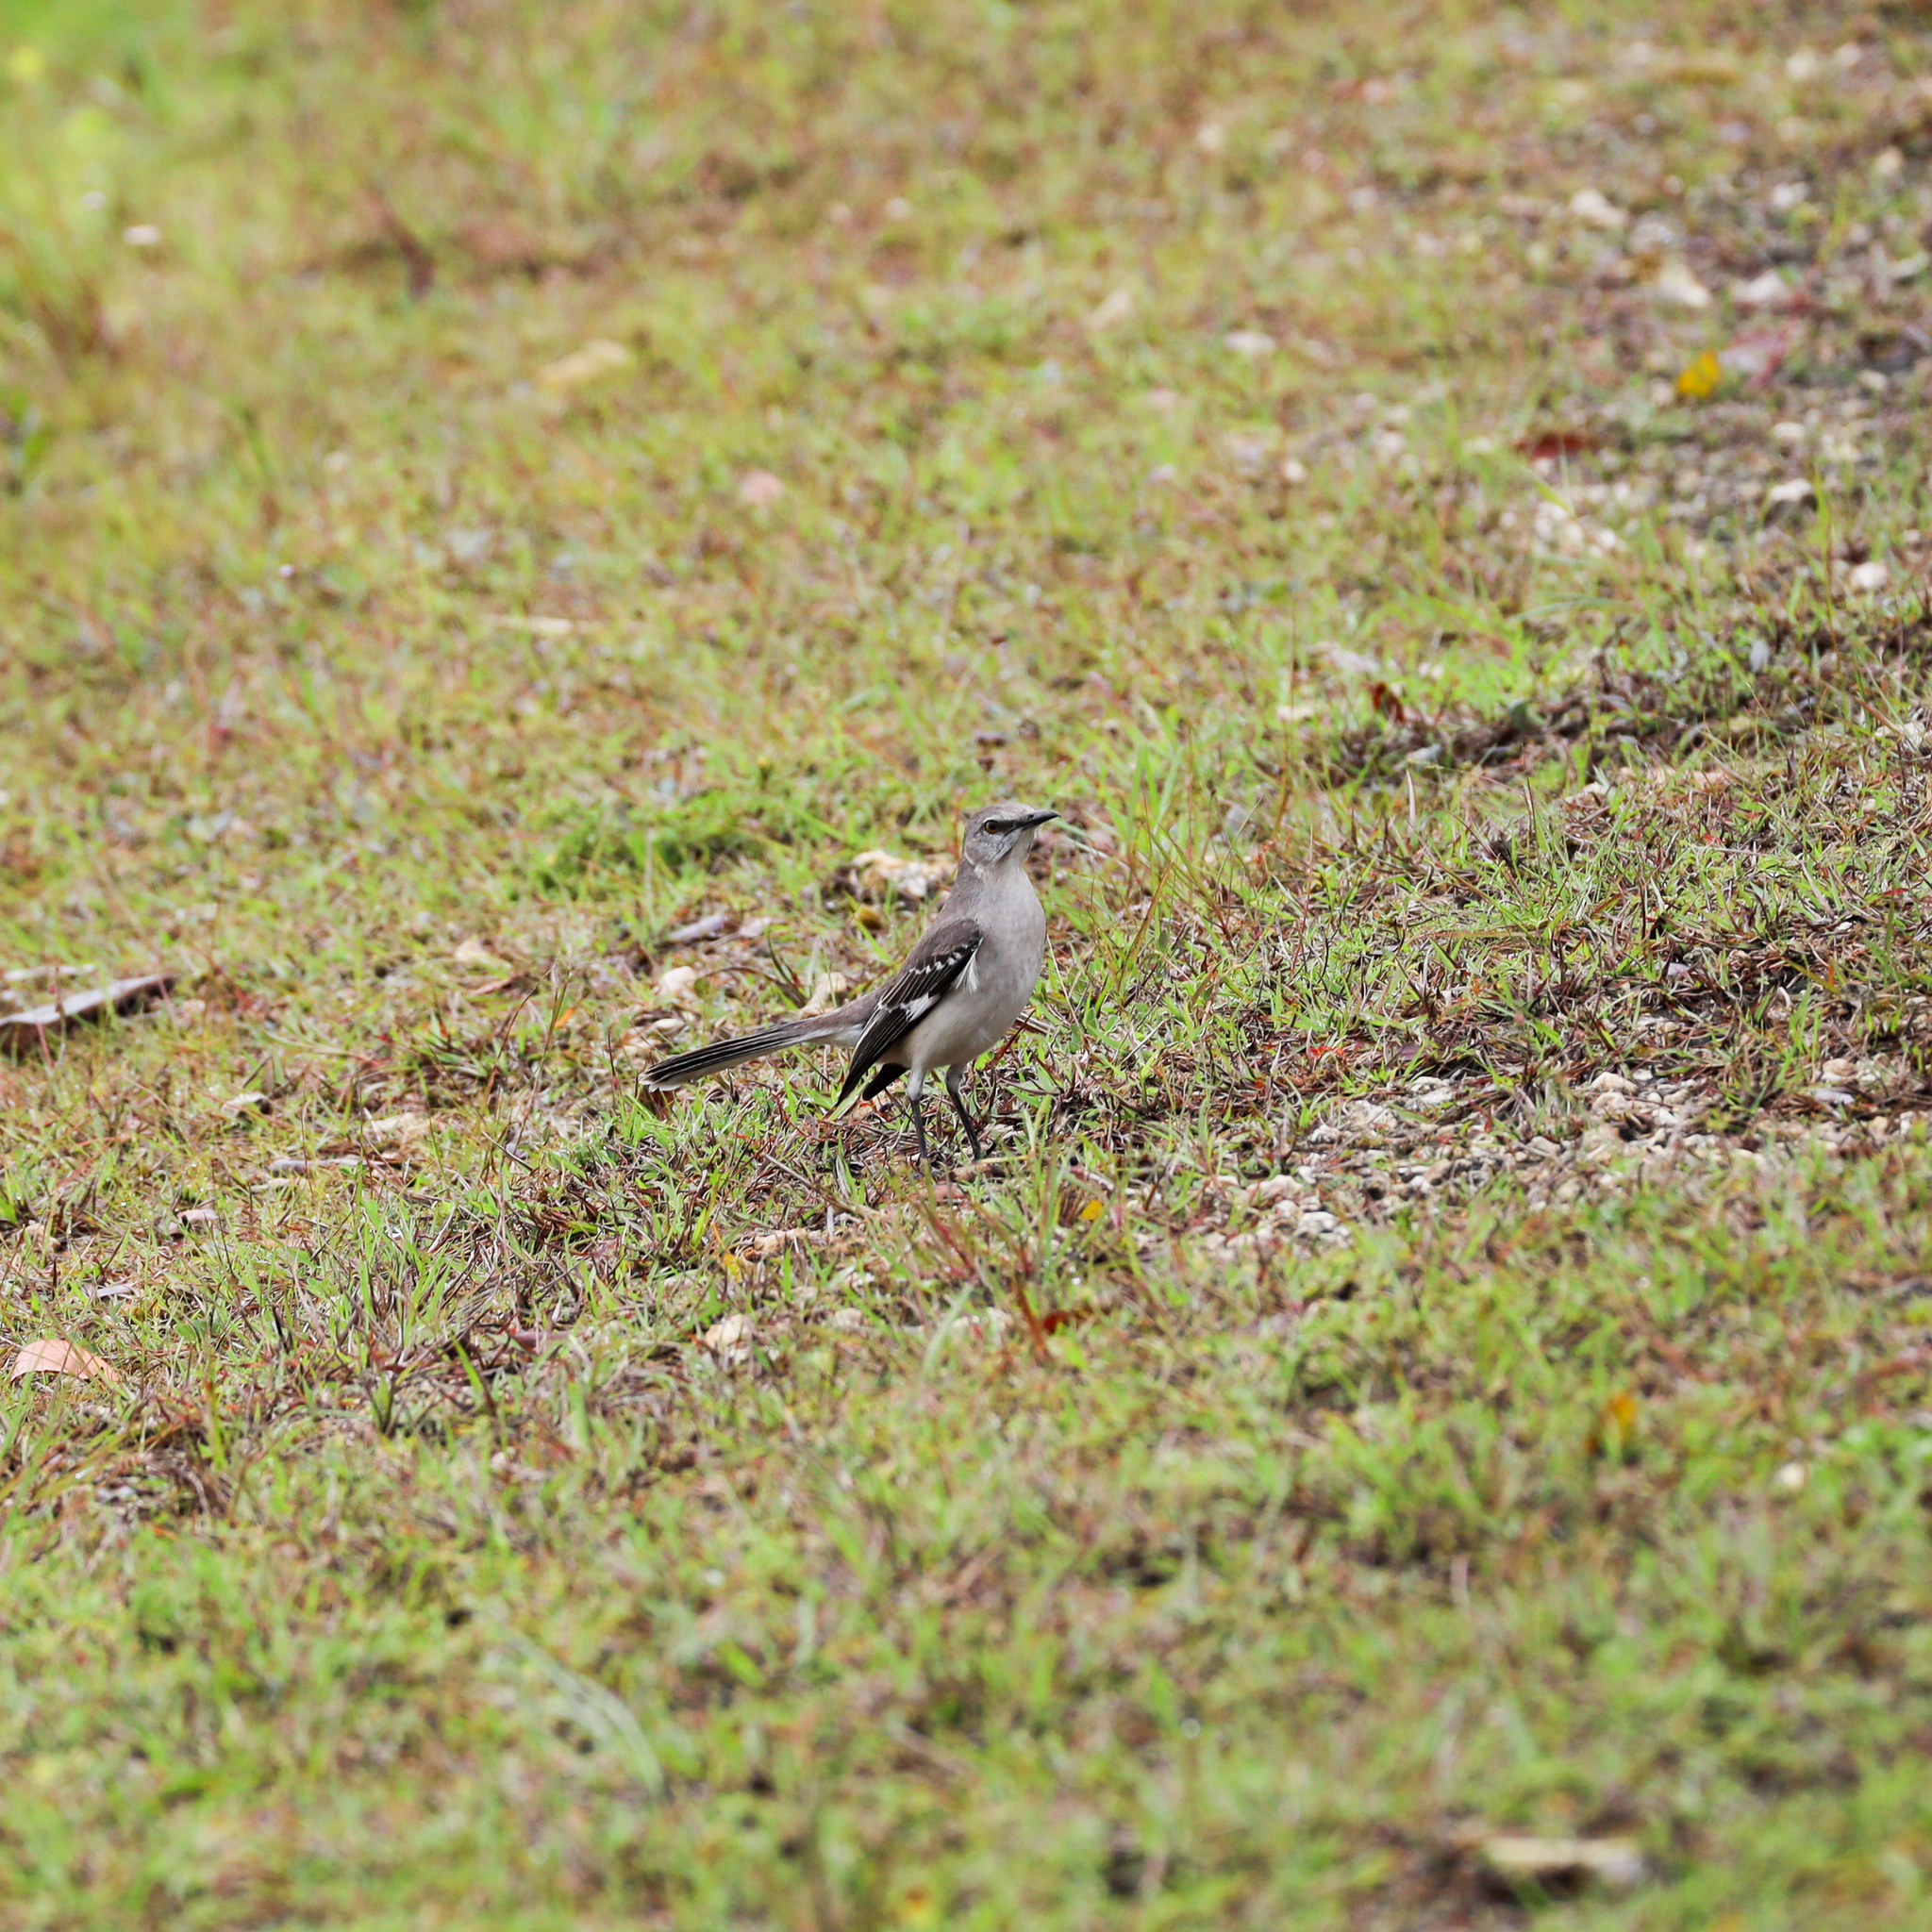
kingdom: Animalia
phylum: Chordata
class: Aves
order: Passeriformes
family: Mimidae
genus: Mimus
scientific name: Mimus polyglottos
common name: Northern mockingbird
